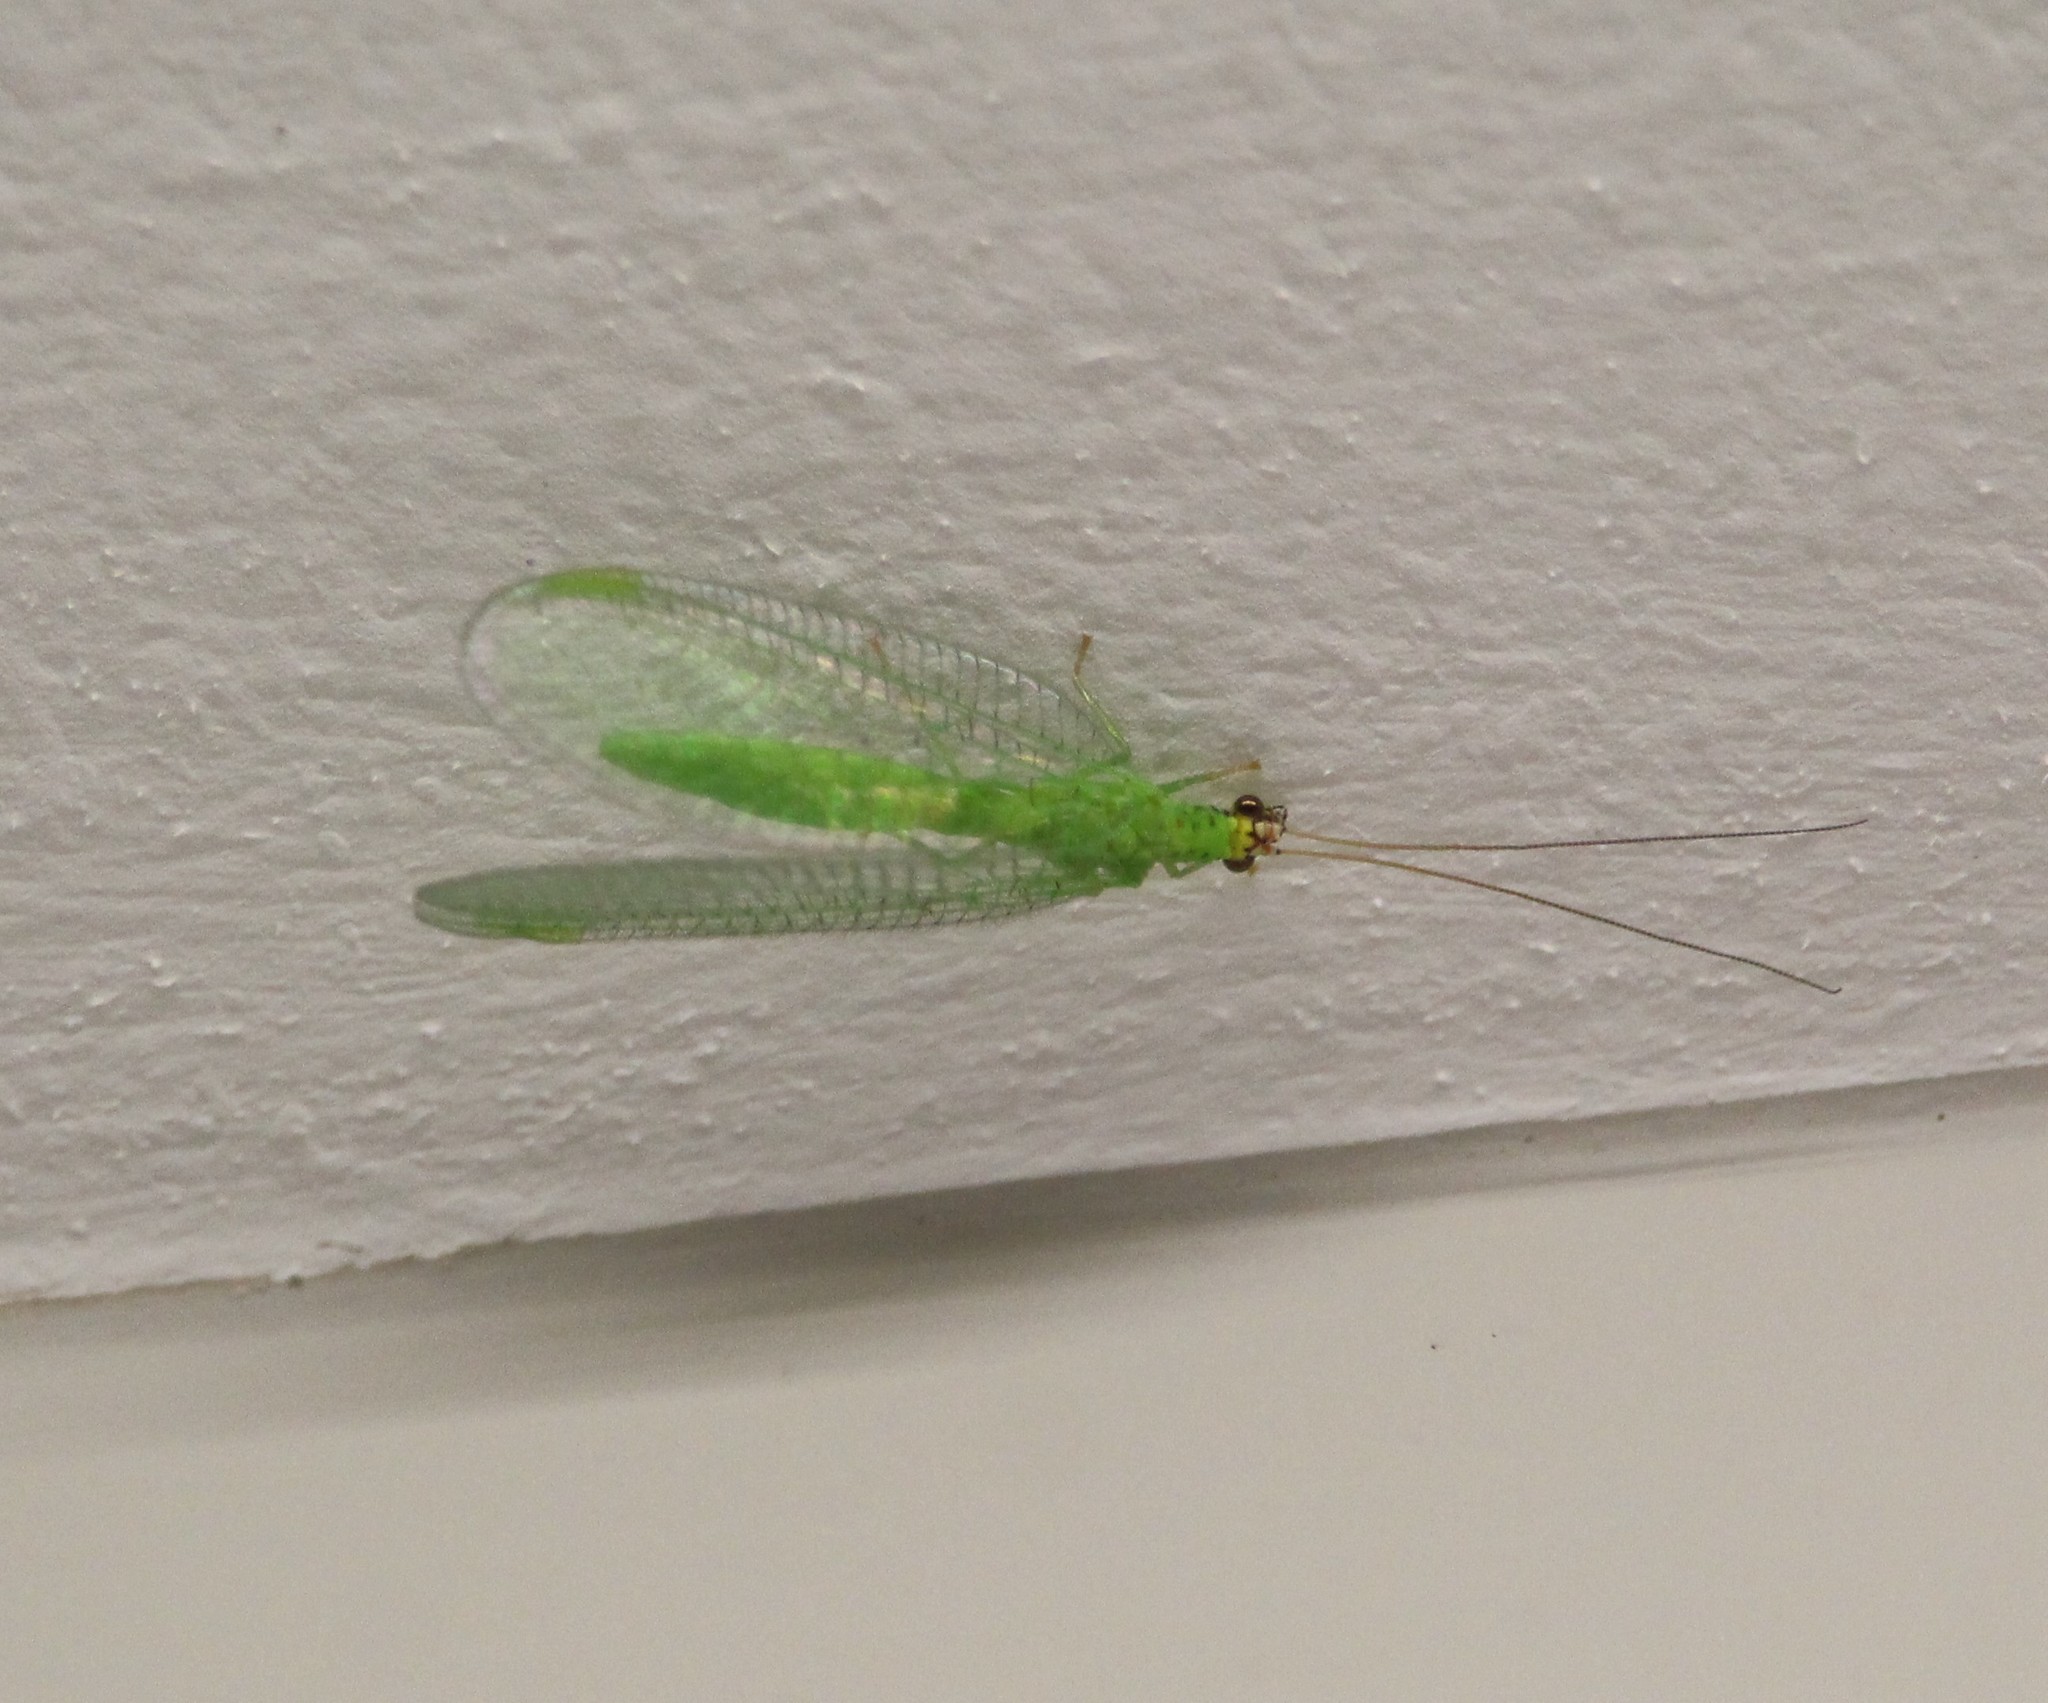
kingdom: Animalia
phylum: Arthropoda
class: Insecta
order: Neuroptera
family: Chrysopidae
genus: Chrysopa
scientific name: Chrysopa oculata
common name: Golden-eyed lacewing
